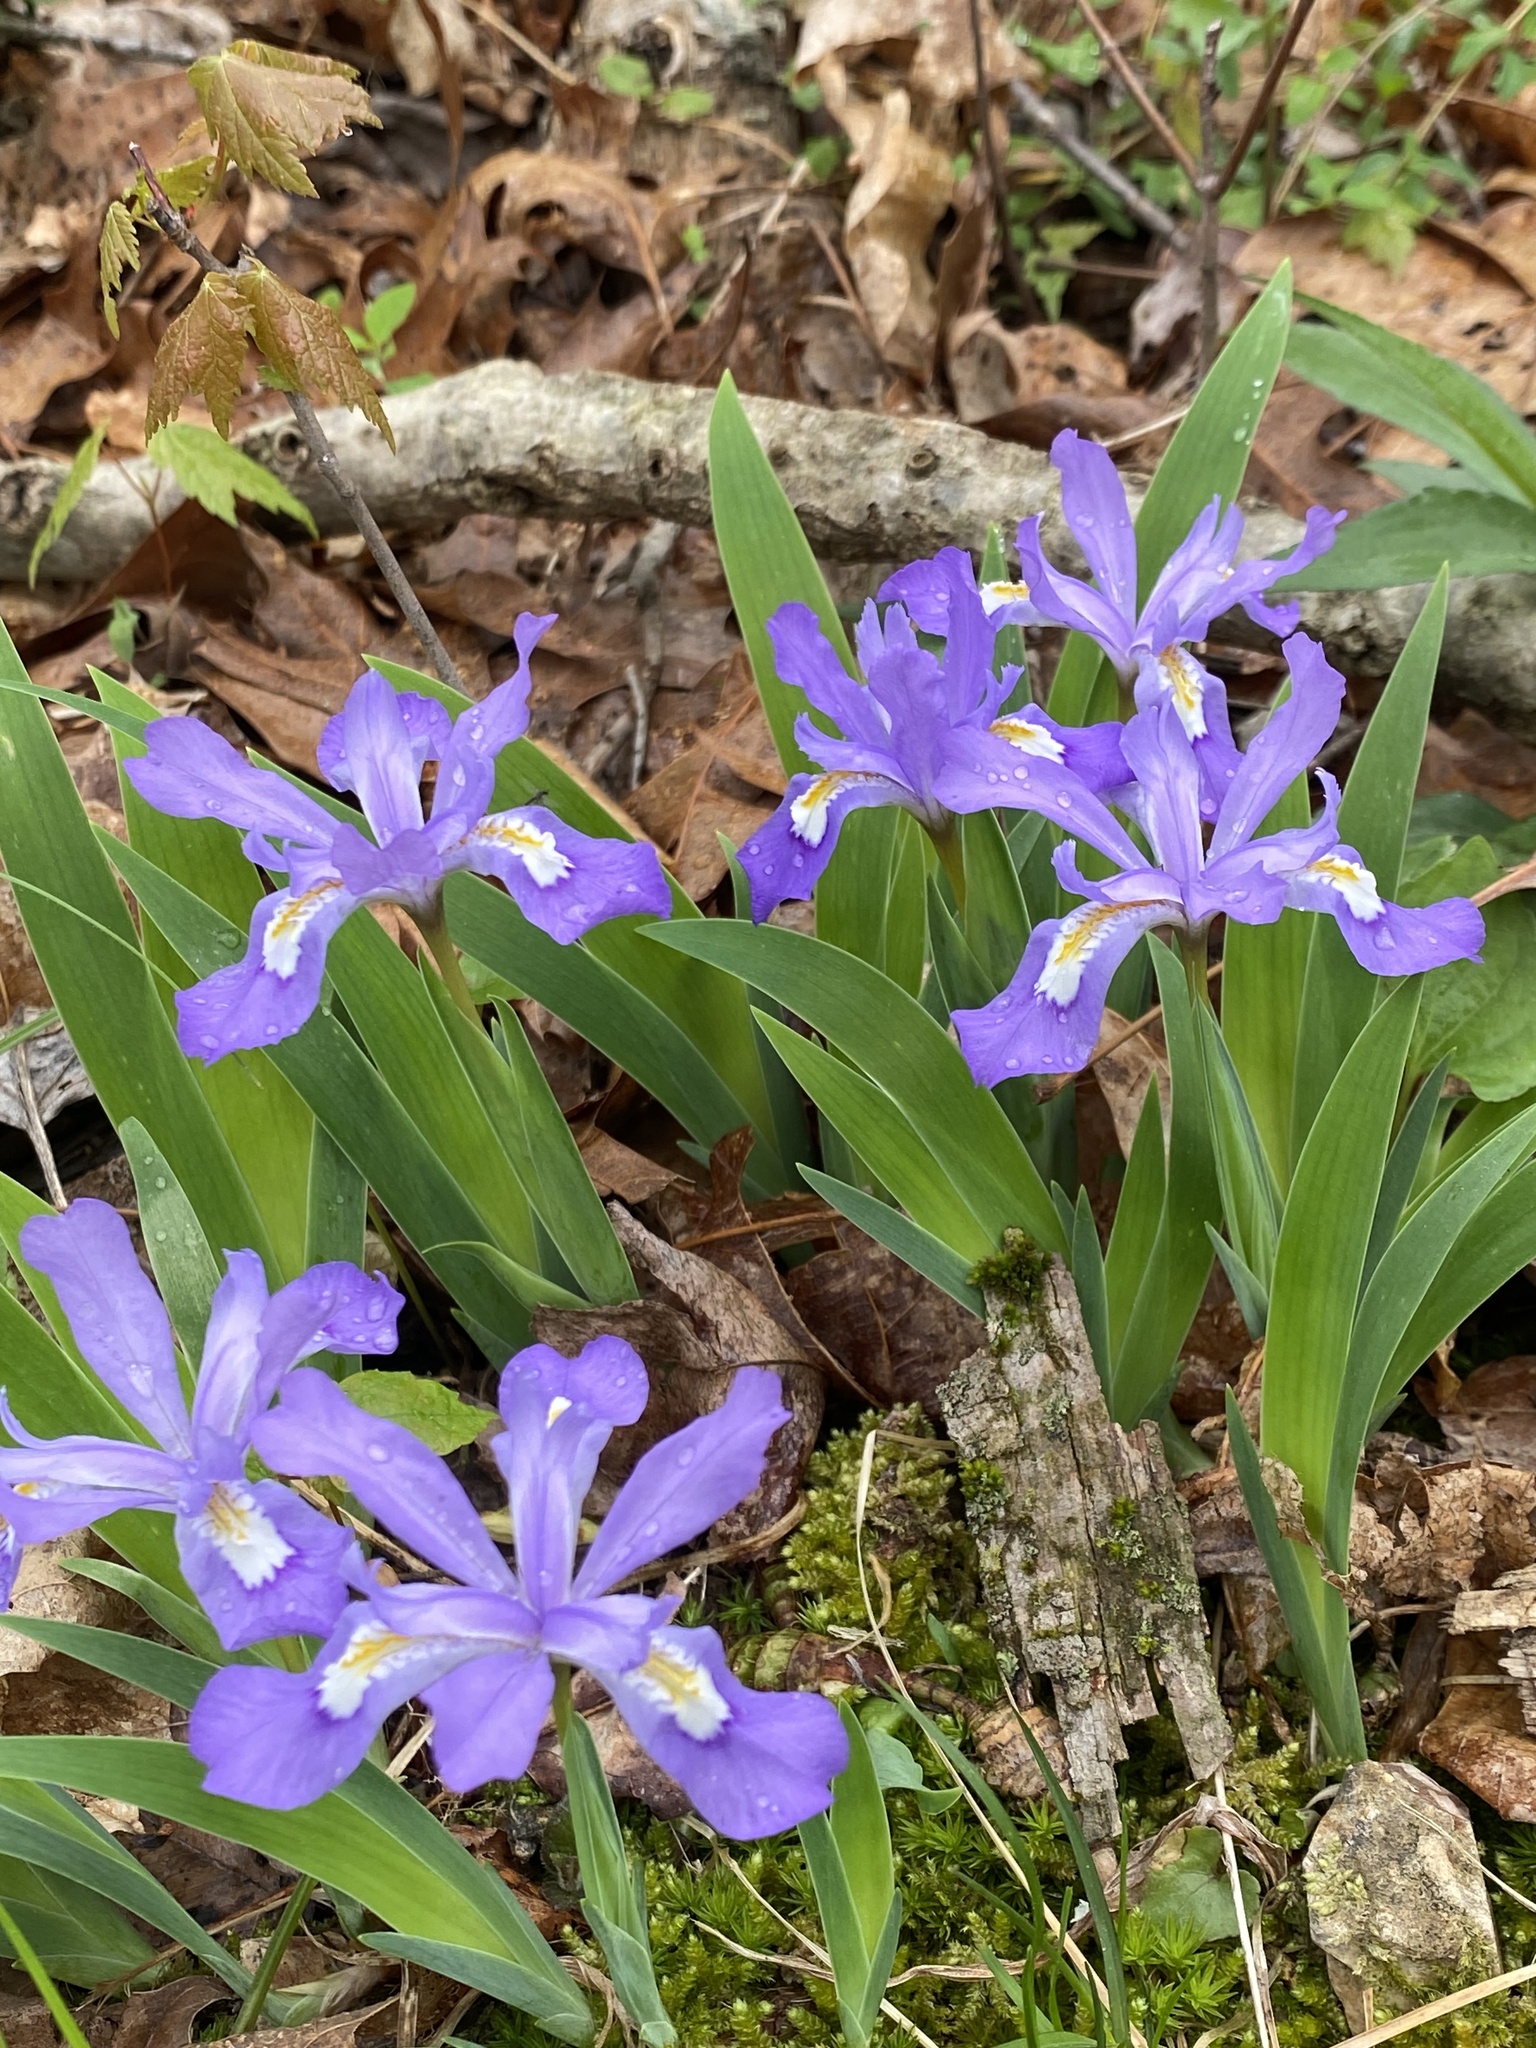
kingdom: Plantae
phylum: Tracheophyta
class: Liliopsida
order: Asparagales
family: Iridaceae
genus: Iris
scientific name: Iris cristata
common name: Crested iris
